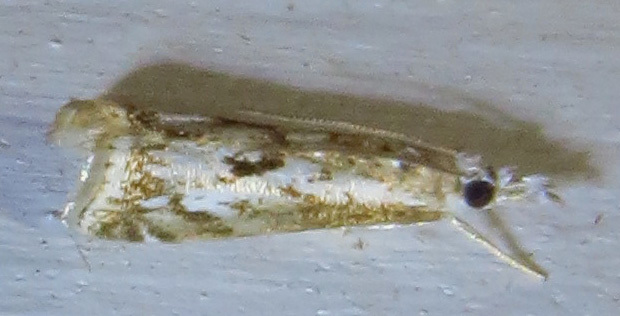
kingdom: Animalia
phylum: Arthropoda
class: Insecta
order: Lepidoptera
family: Crambidae
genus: Microcrambus
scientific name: Microcrambus kimballi
